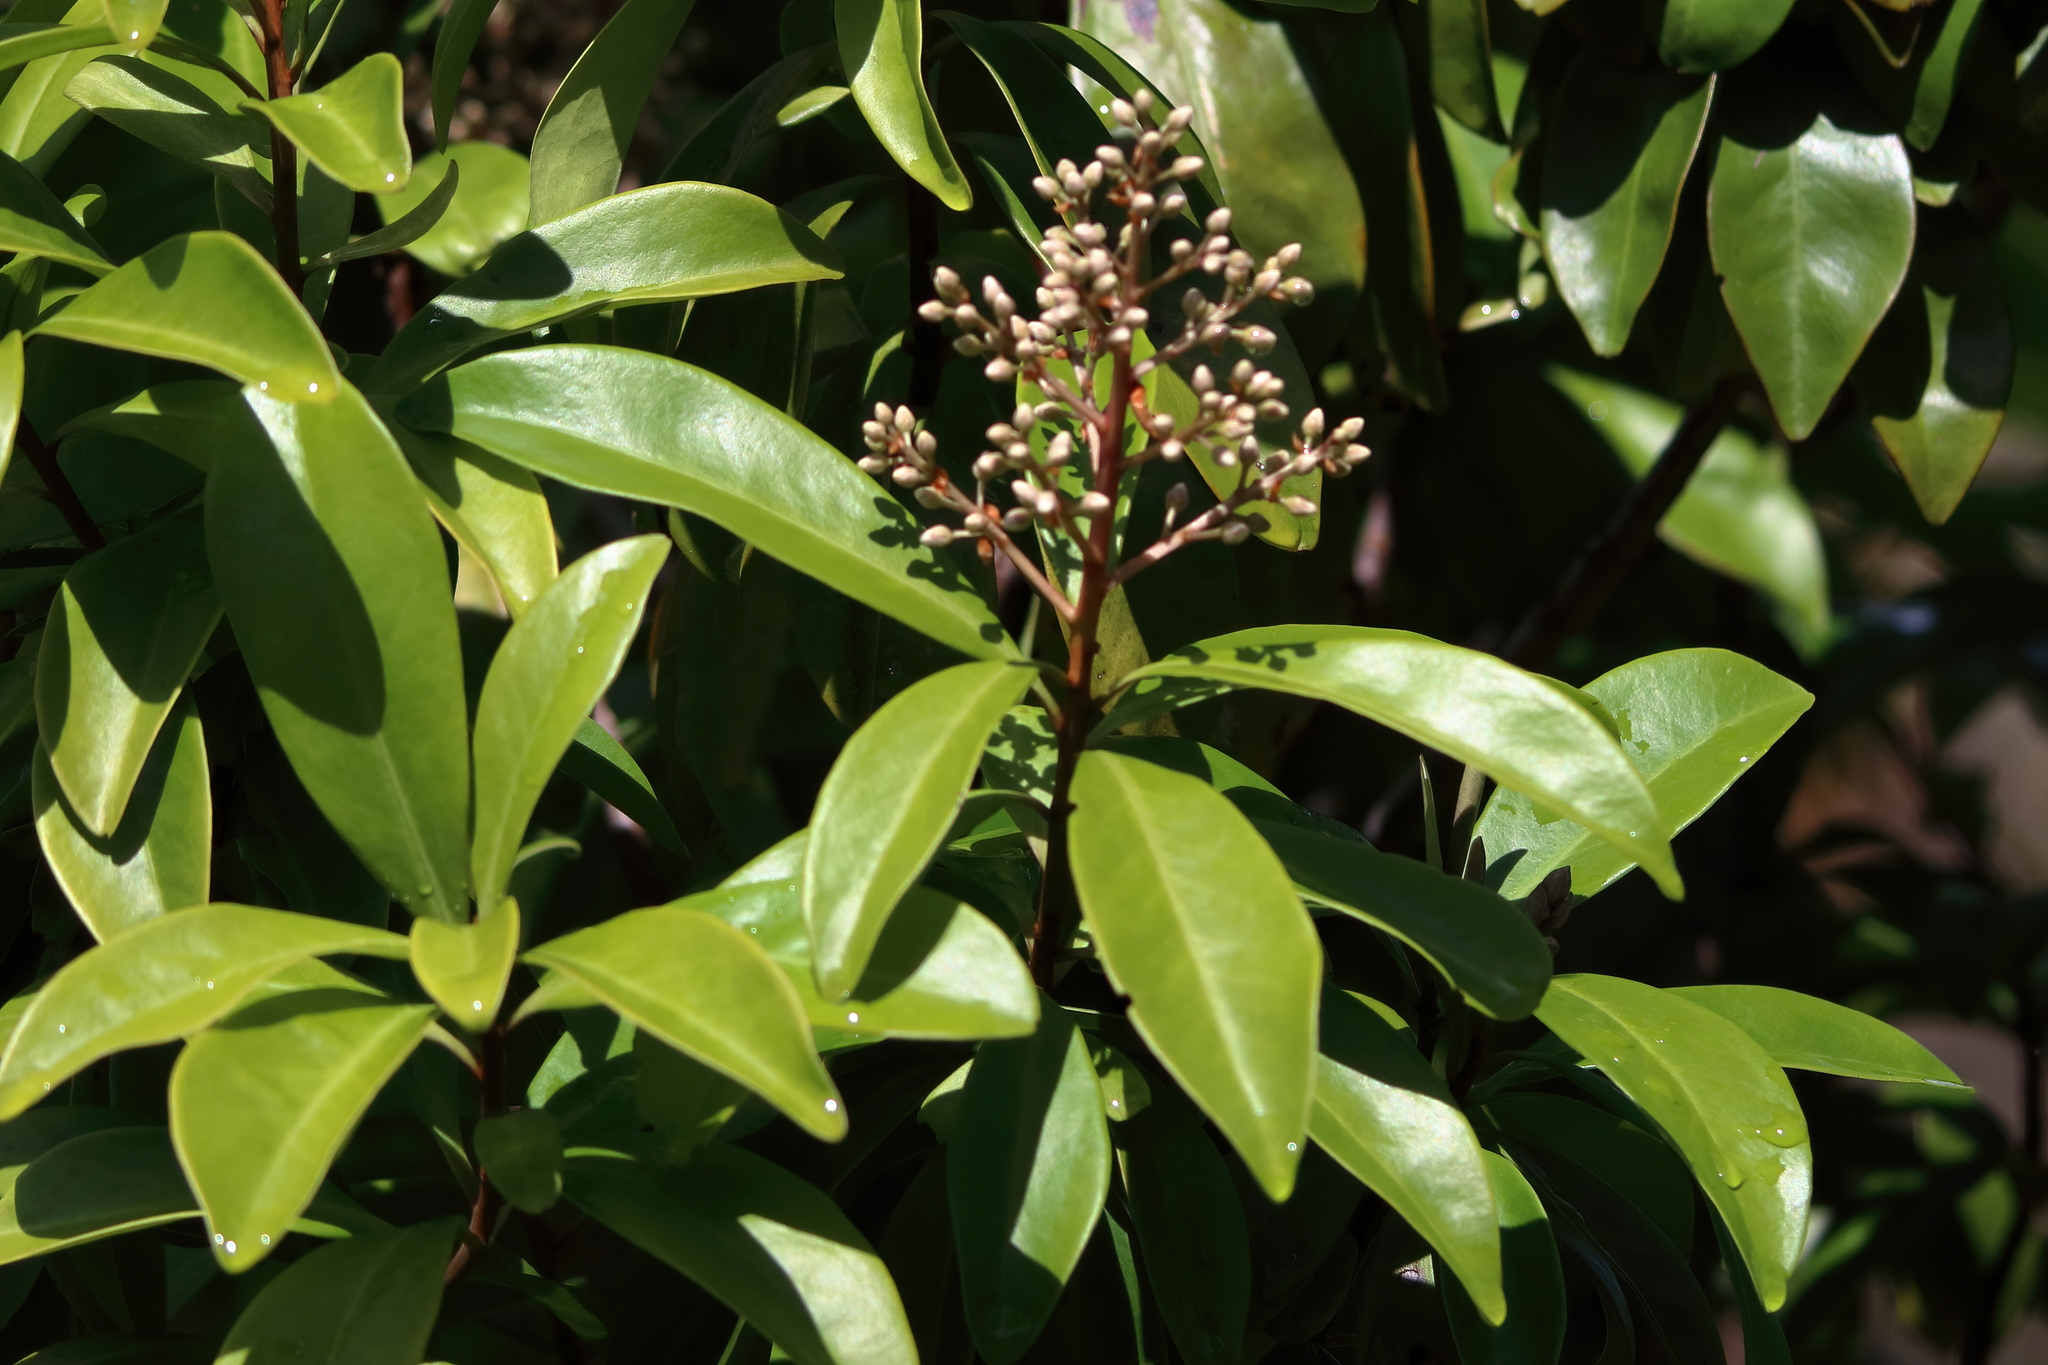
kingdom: Plantae
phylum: Tracheophyta
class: Magnoliopsida
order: Ericales
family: Primulaceae
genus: Ardisia
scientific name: Ardisia escallonioides
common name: Island marlberry
